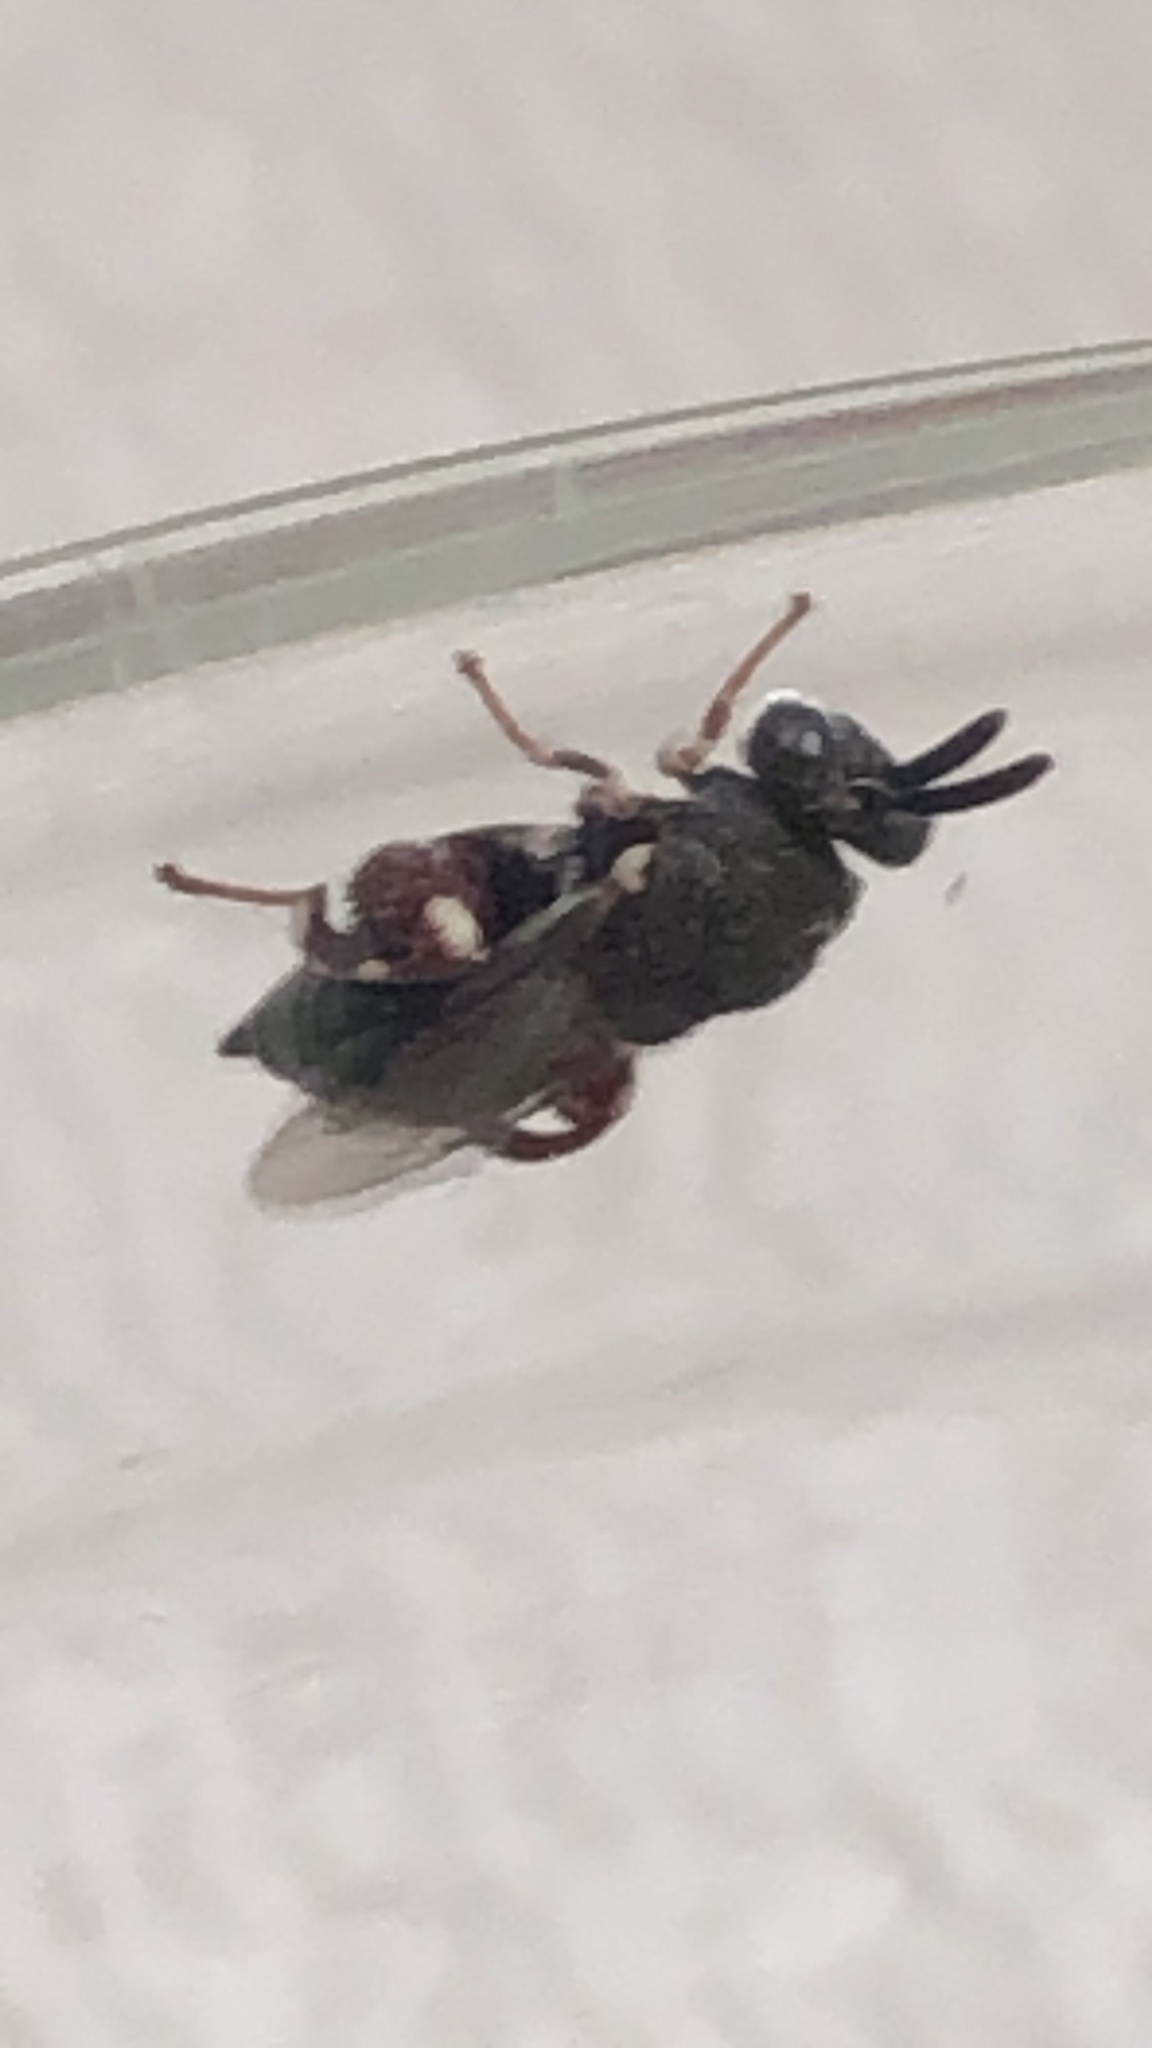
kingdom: Animalia
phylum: Arthropoda
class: Insecta
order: Hymenoptera
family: Chalcididae
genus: Brachymeria
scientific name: Brachymeria podagrica
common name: Chalcid wasp
